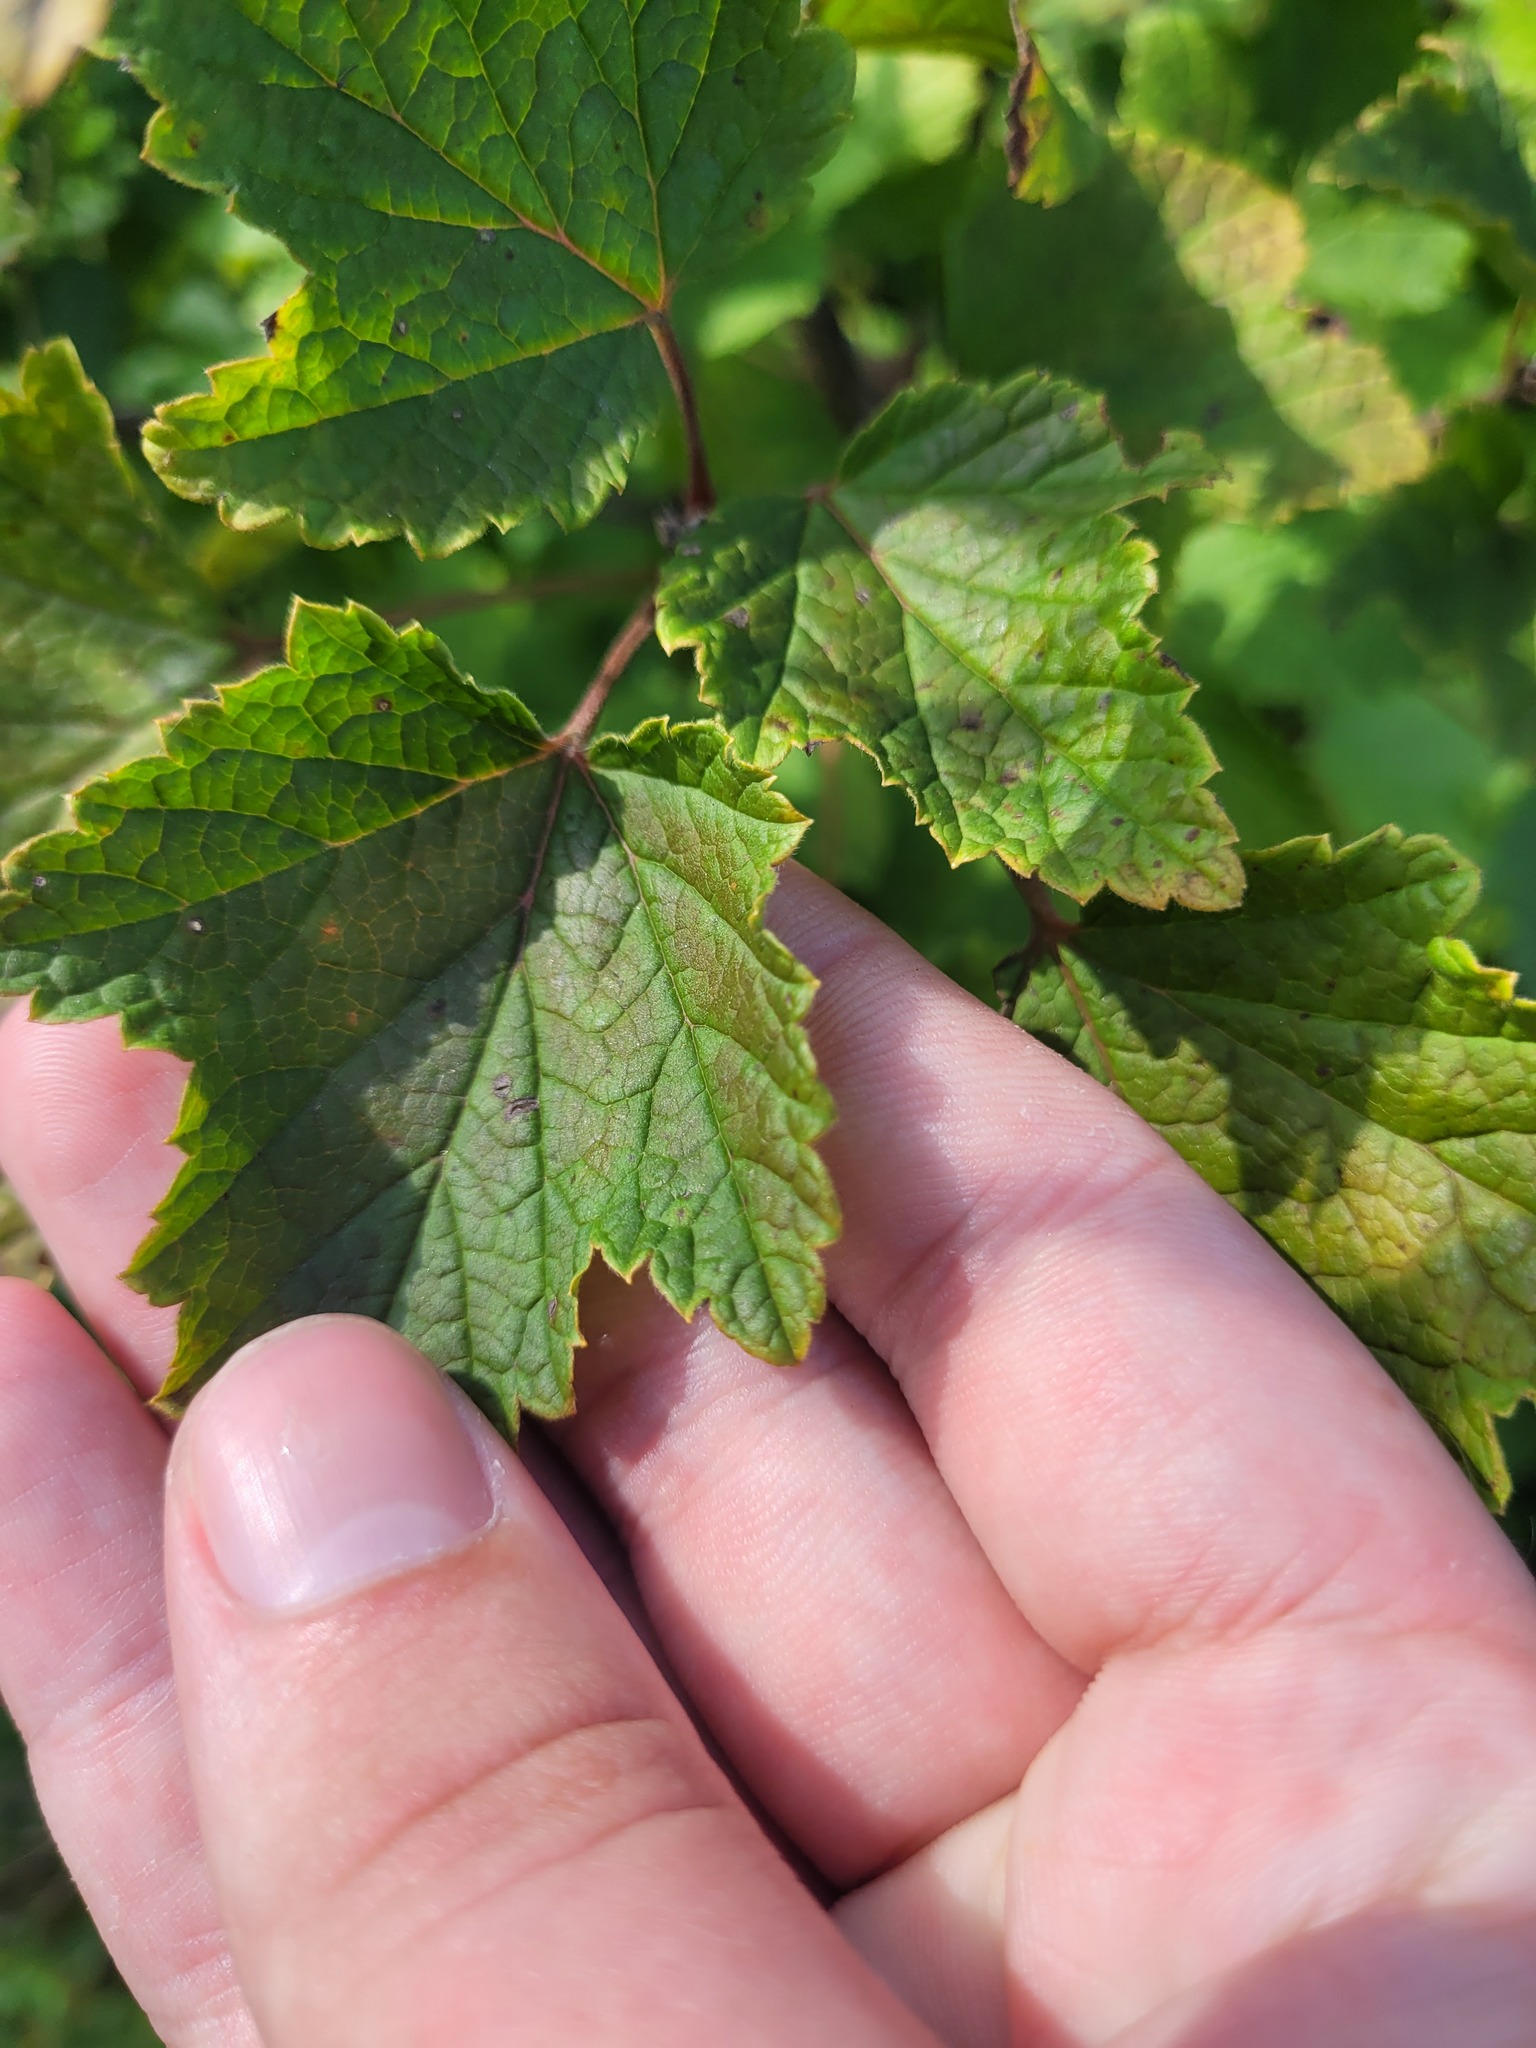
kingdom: Plantae
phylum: Tracheophyta
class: Magnoliopsida
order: Saxifragales
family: Grossulariaceae
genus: Ribes
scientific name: Ribes spicatum
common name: Downy currant
